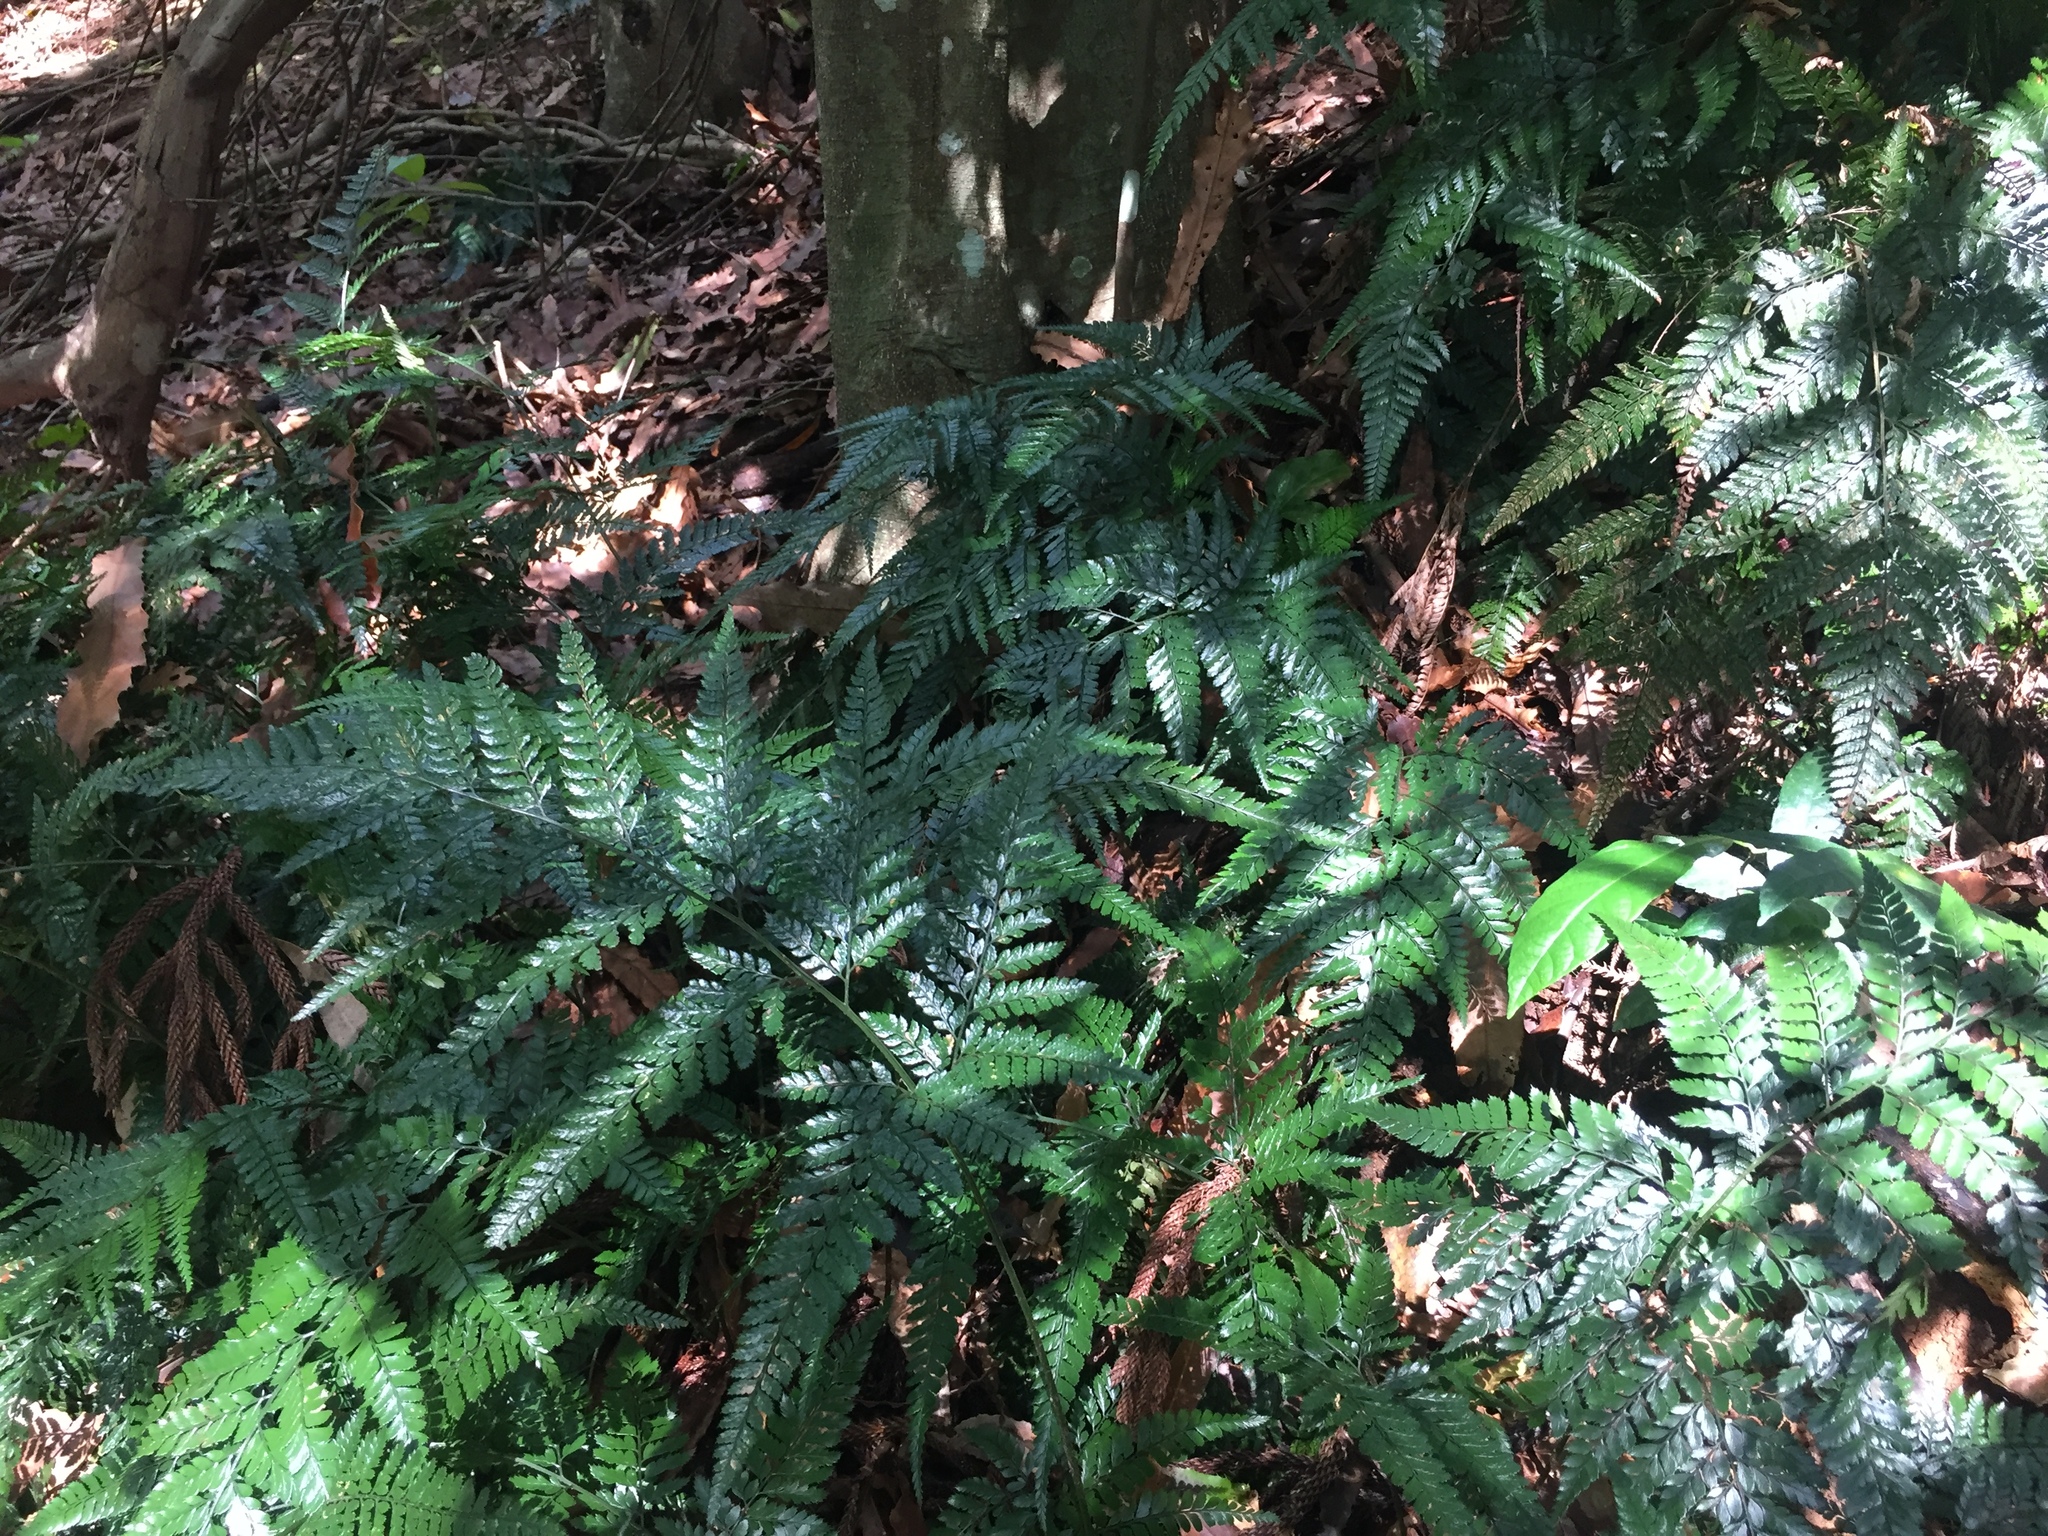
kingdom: Plantae
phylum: Tracheophyta
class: Polypodiopsida
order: Polypodiales
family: Dryopteridaceae
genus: Arachniodes
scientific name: Arachniodes aristata
